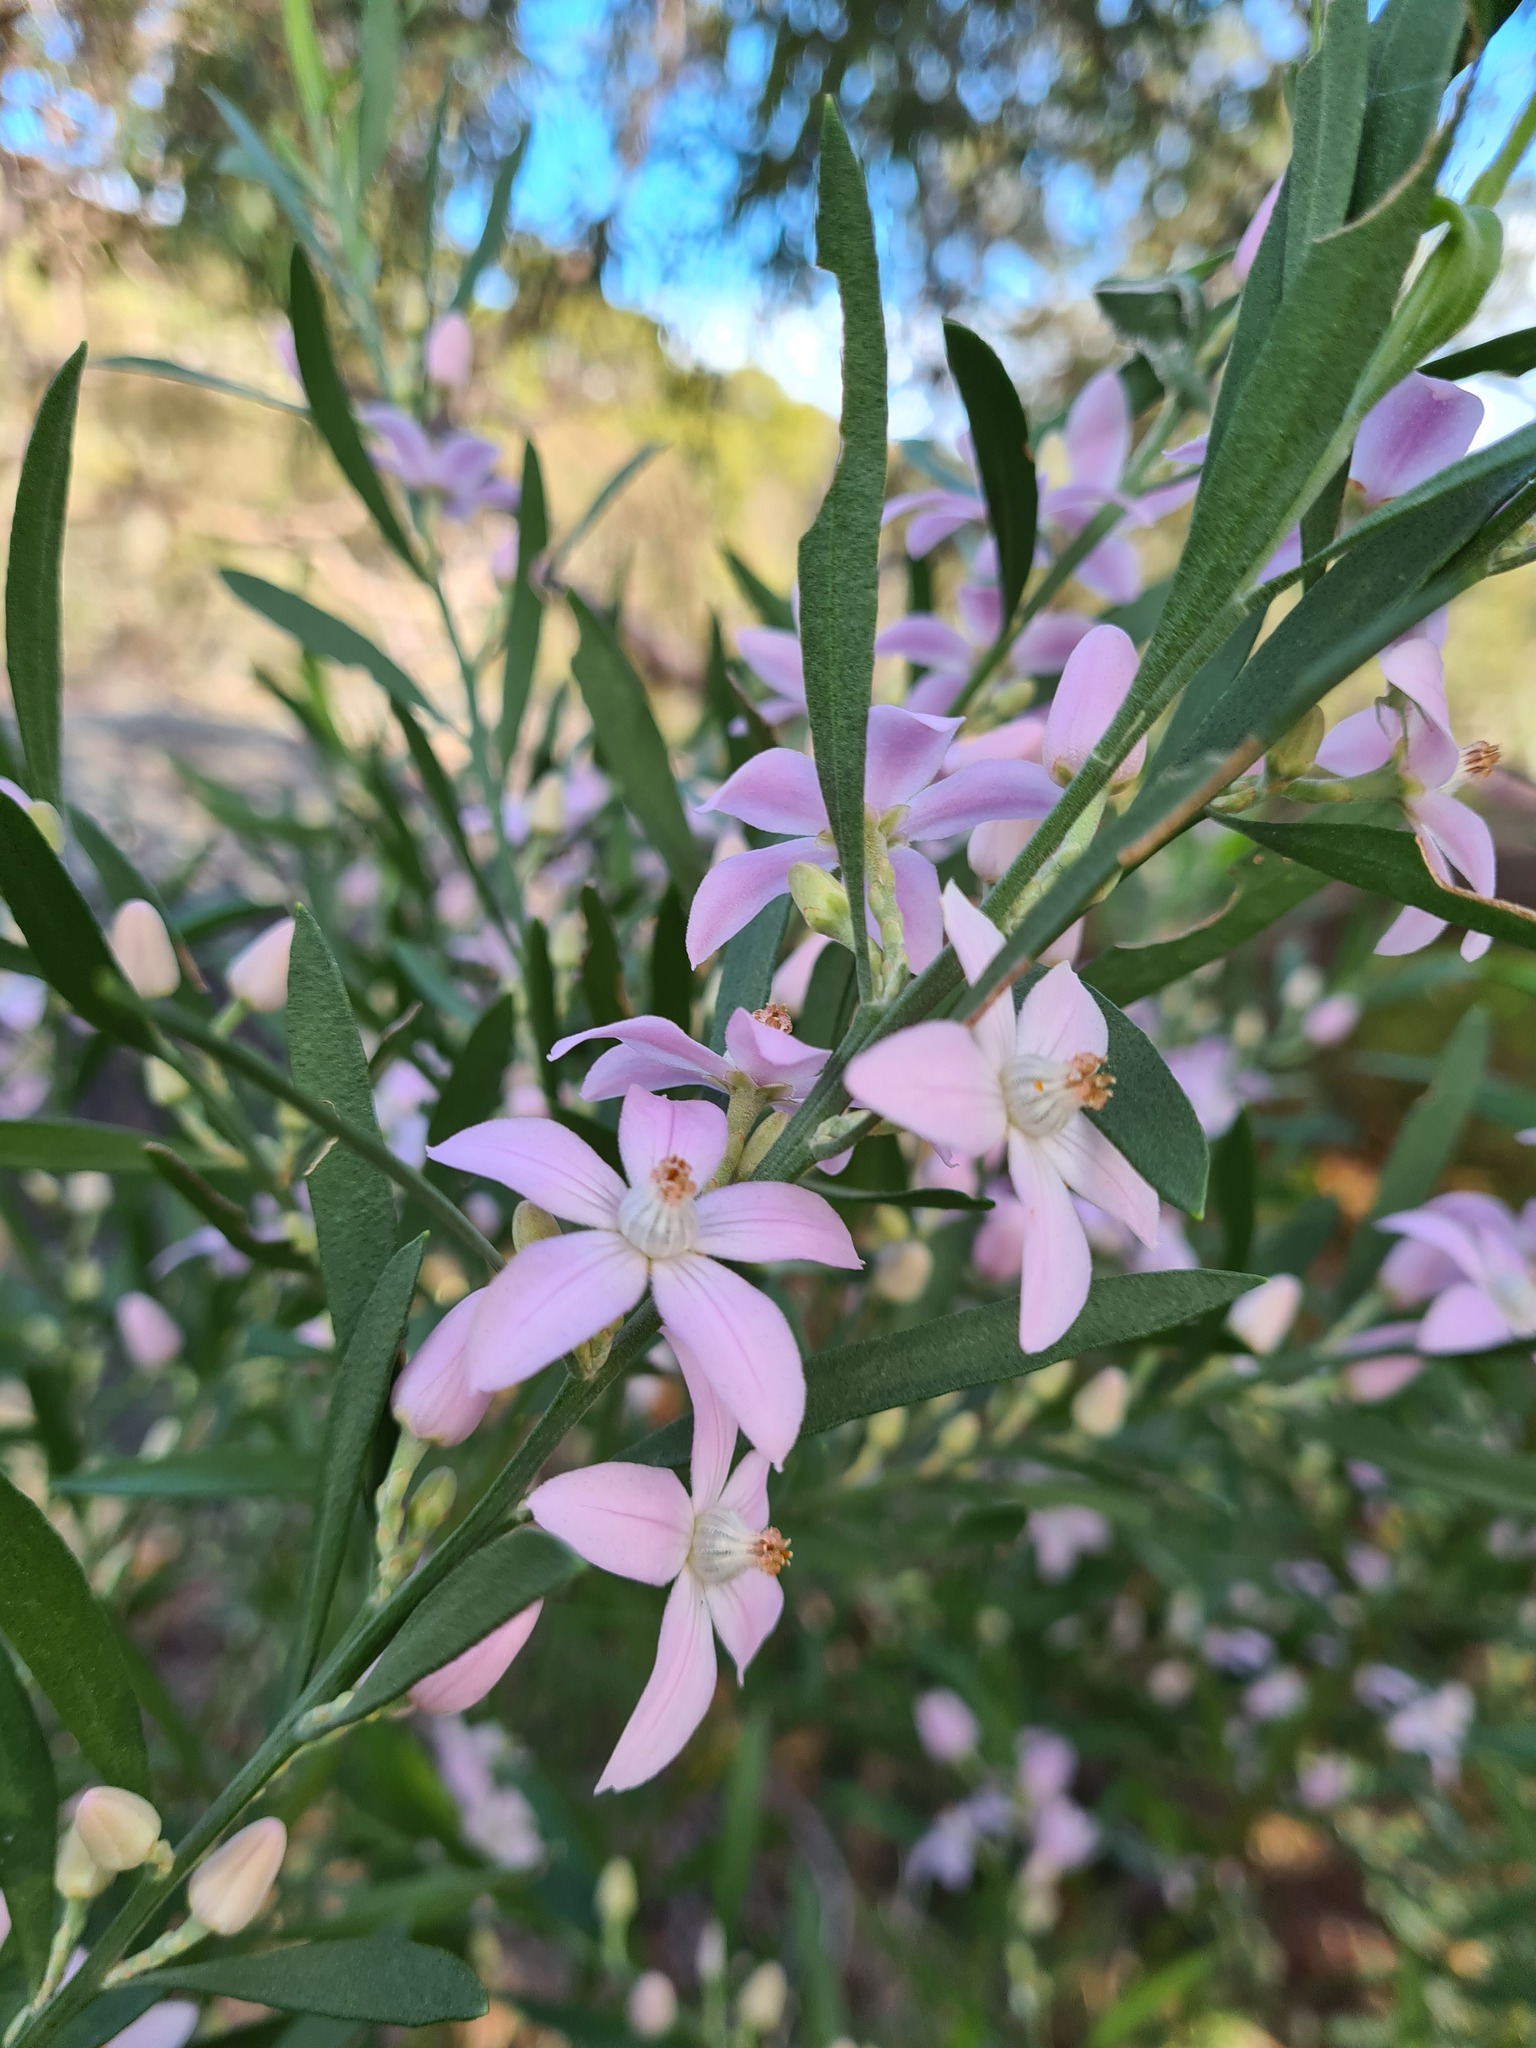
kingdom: Plantae
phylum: Tracheophyta
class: Magnoliopsida
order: Sapindales
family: Rutaceae
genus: Eriostemon
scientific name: Eriostemon australasius
